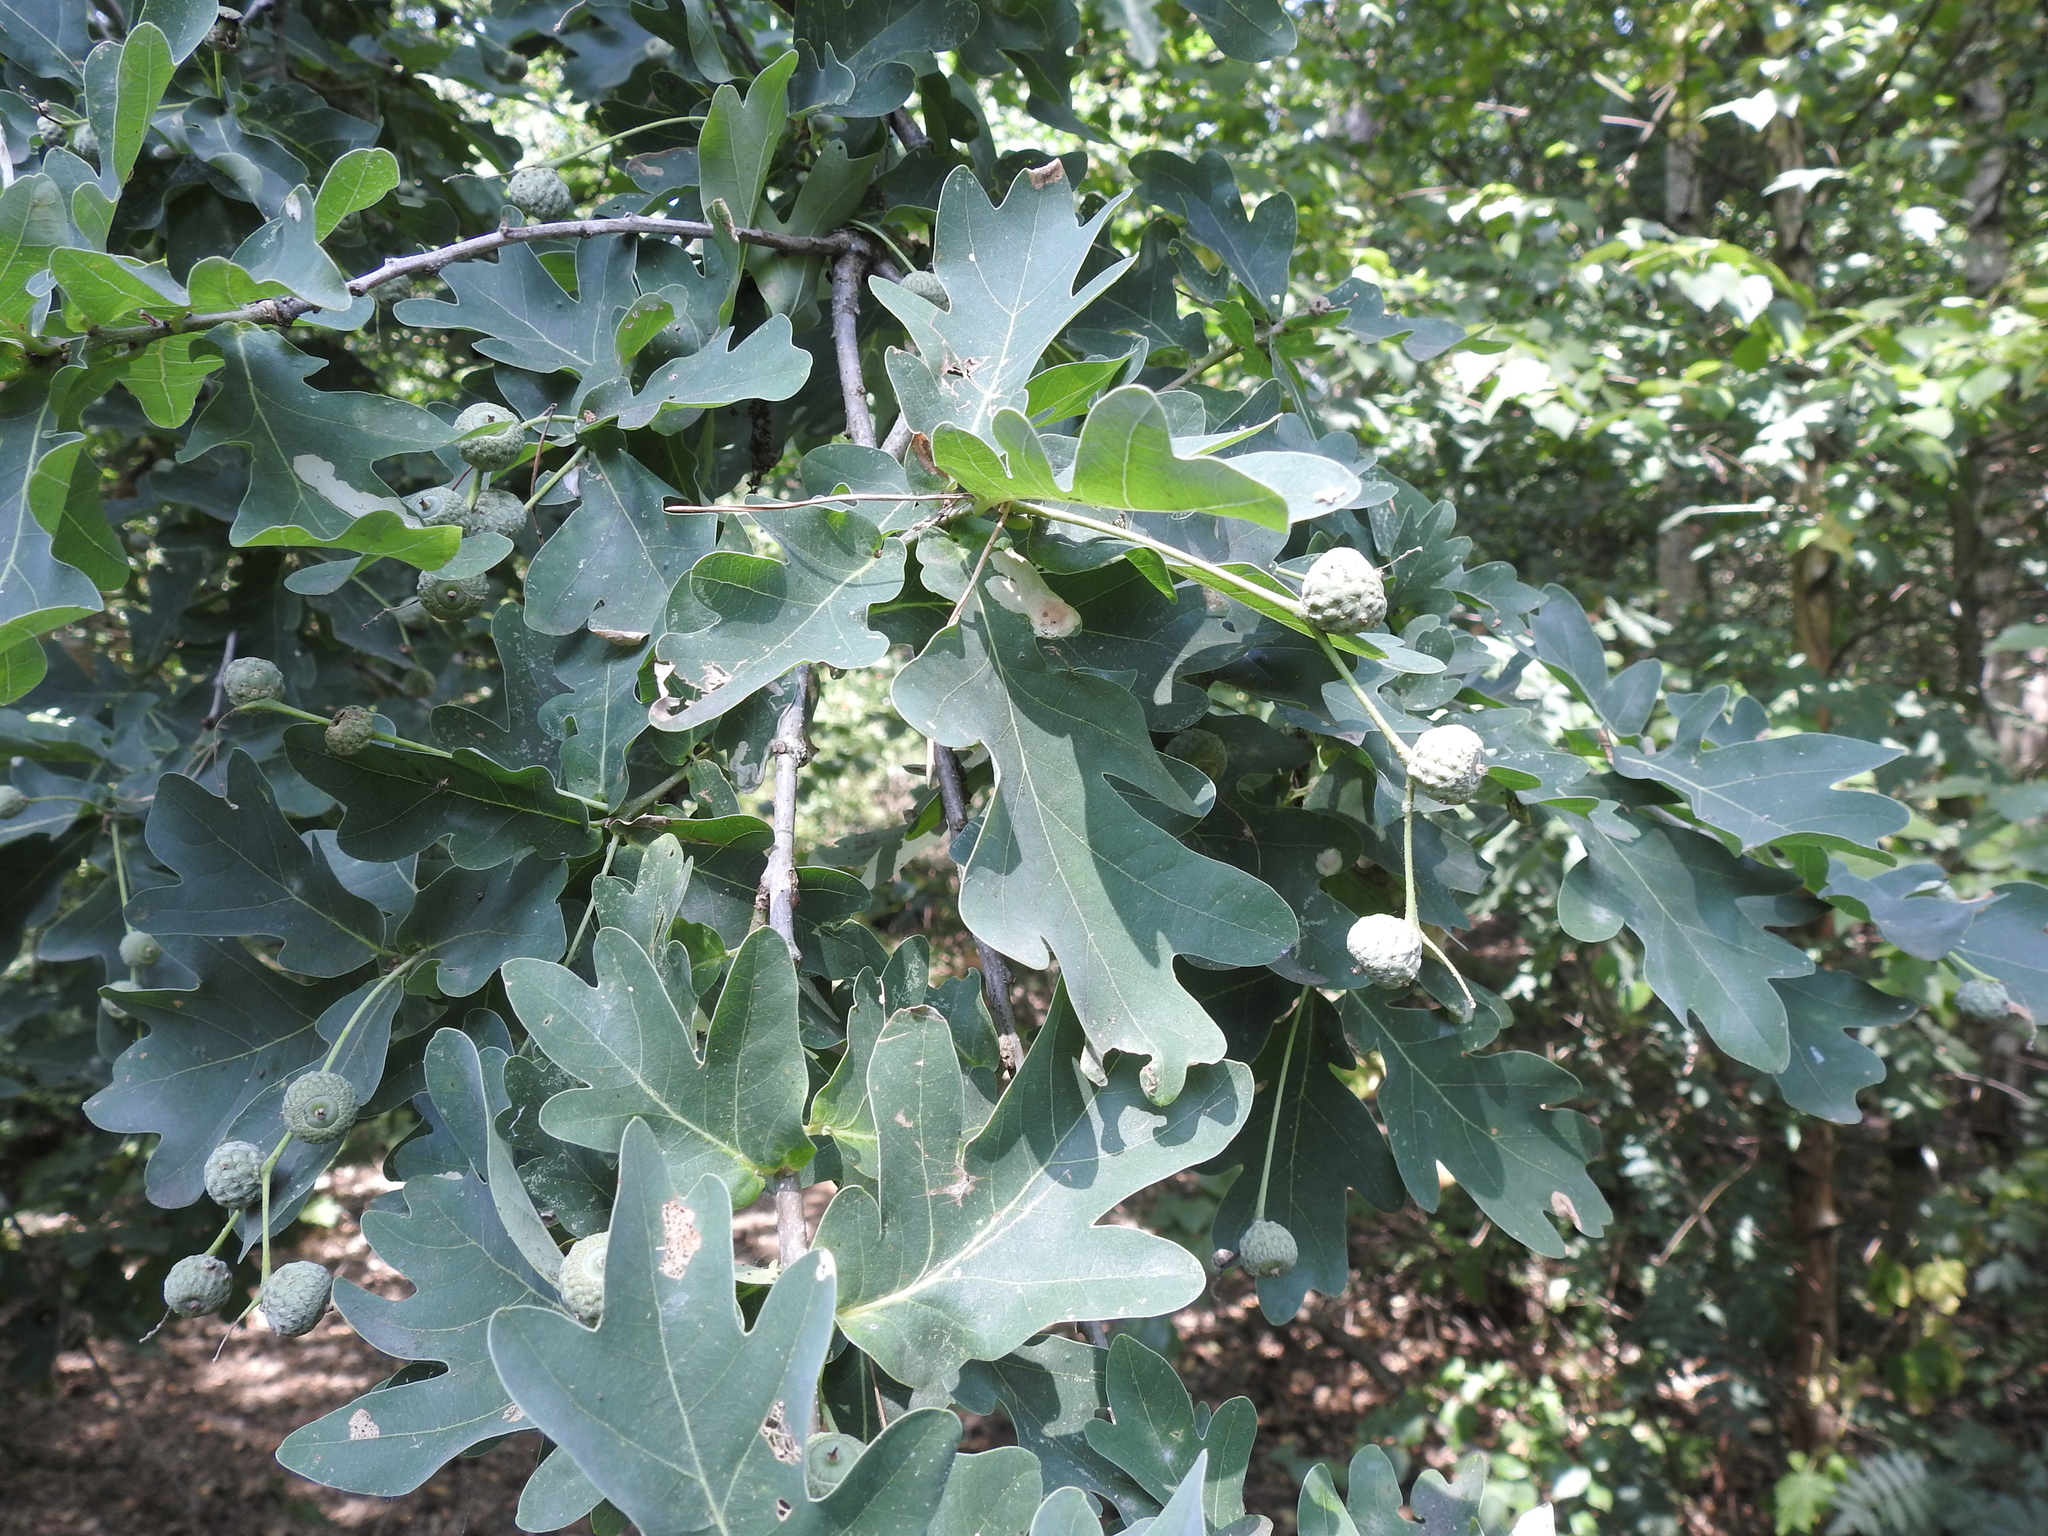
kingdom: Plantae
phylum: Tracheophyta
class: Magnoliopsida
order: Fagales
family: Fagaceae
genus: Quercus
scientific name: Quercus robur
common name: Pedunculate oak
